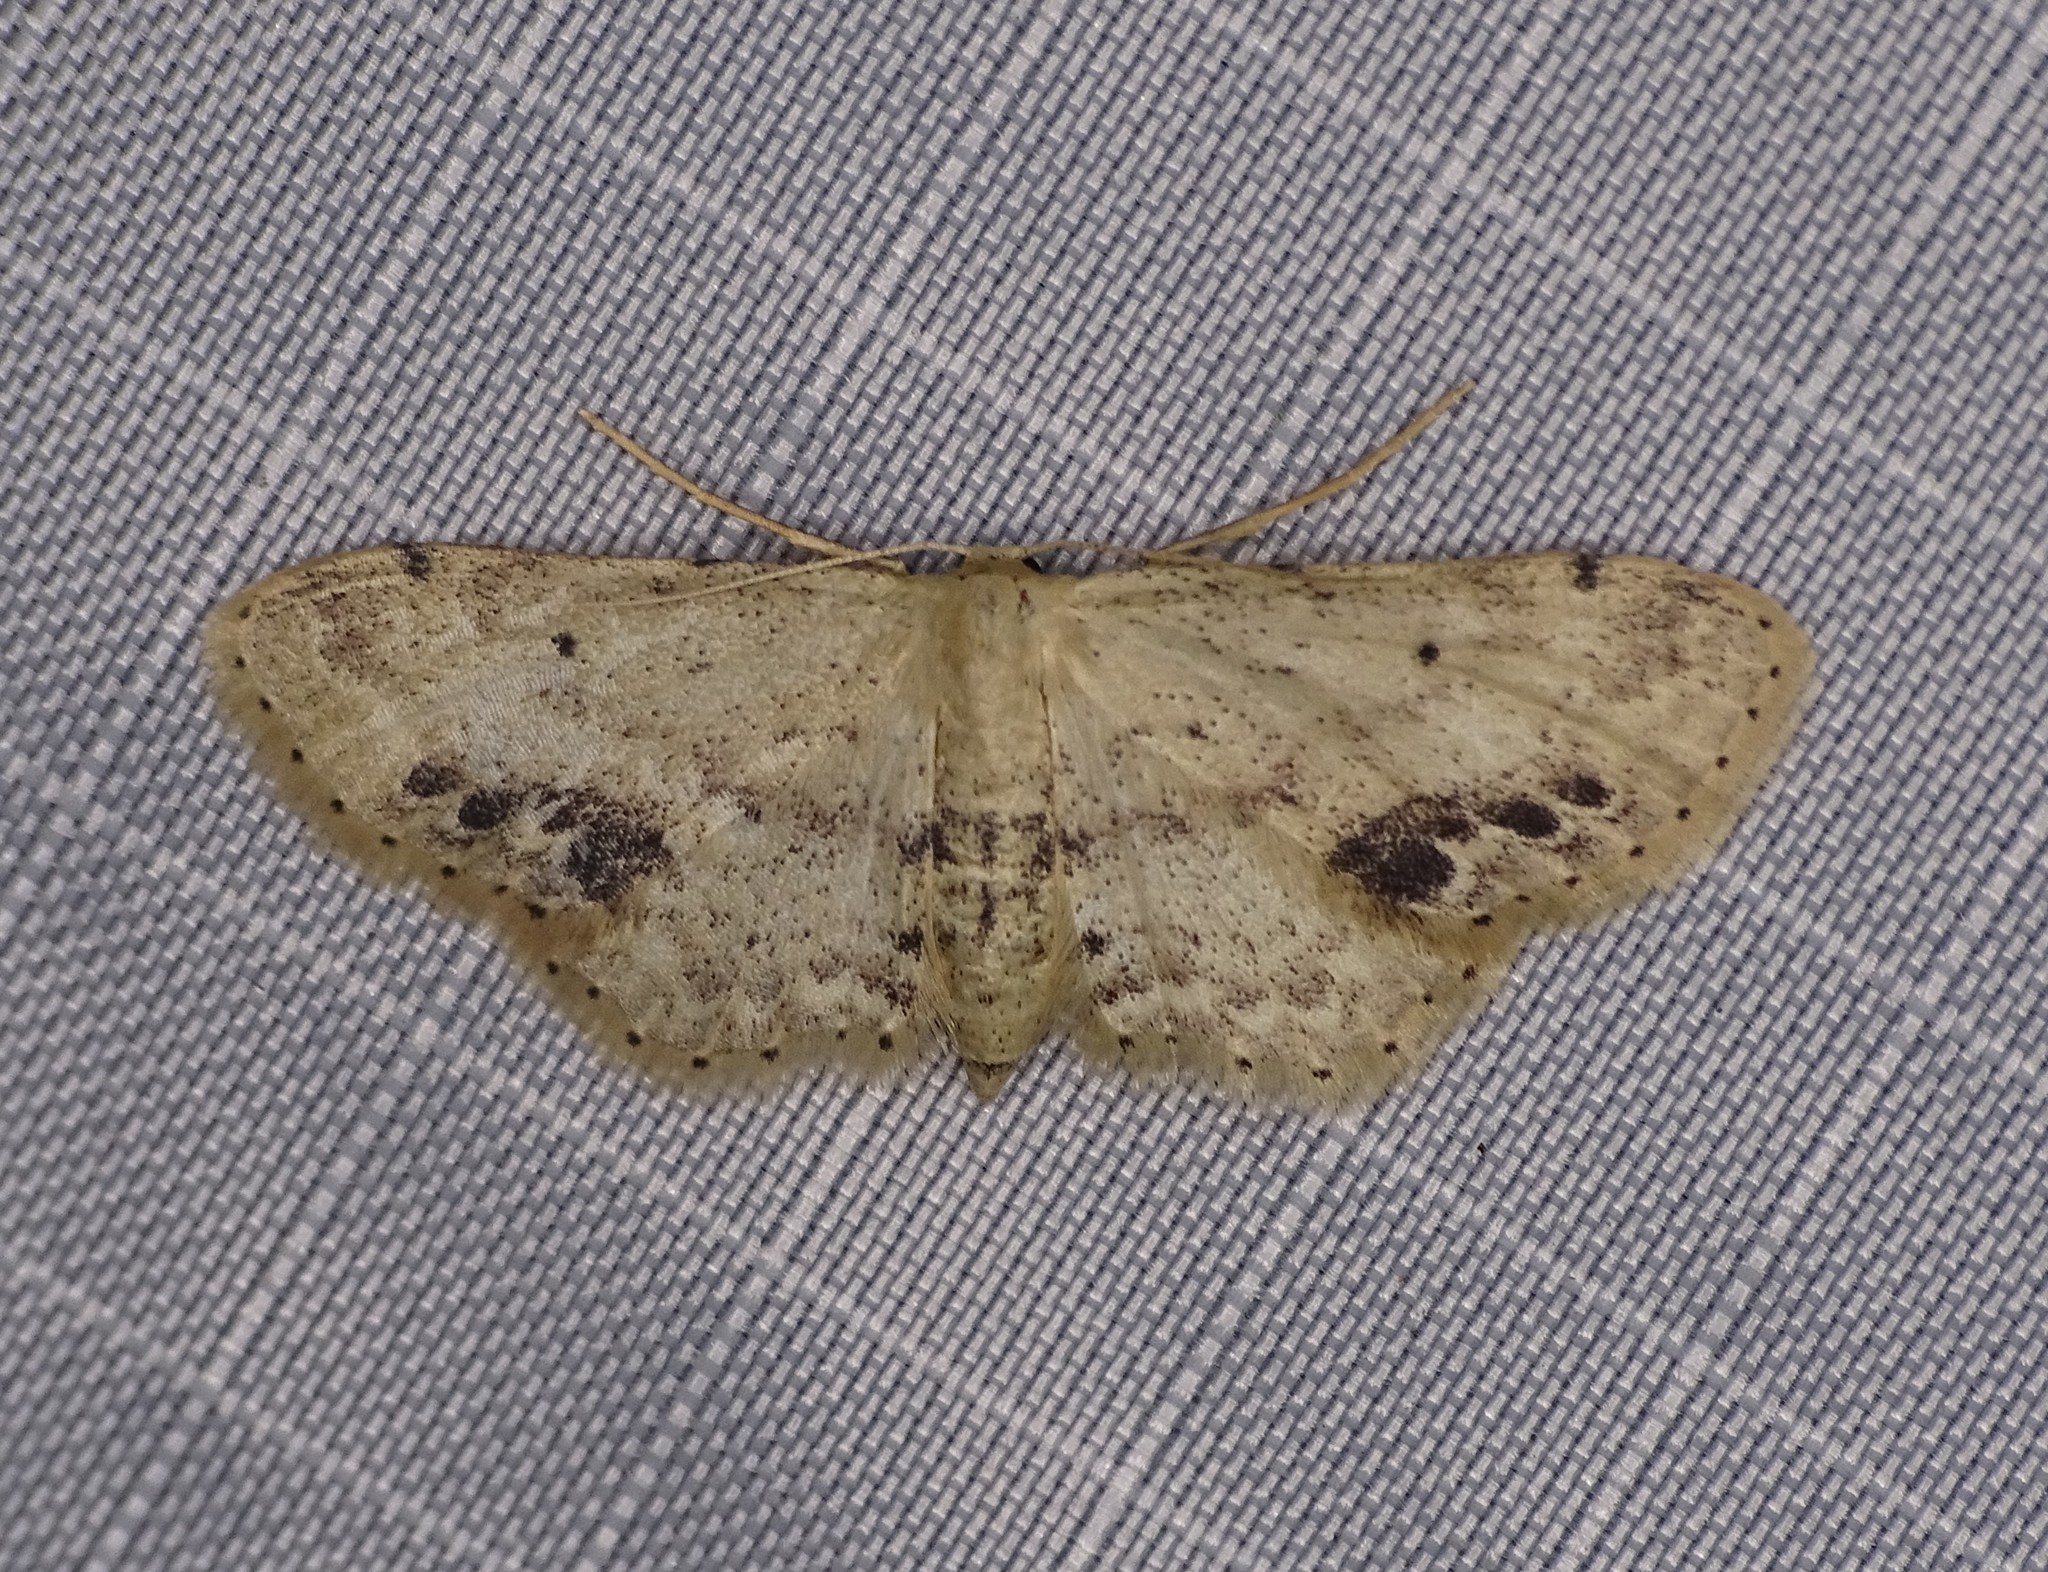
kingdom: Animalia
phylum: Arthropoda
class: Insecta
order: Lepidoptera
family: Geometridae
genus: Idaea
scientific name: Idaea dimidiata
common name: Single-dotted wave
